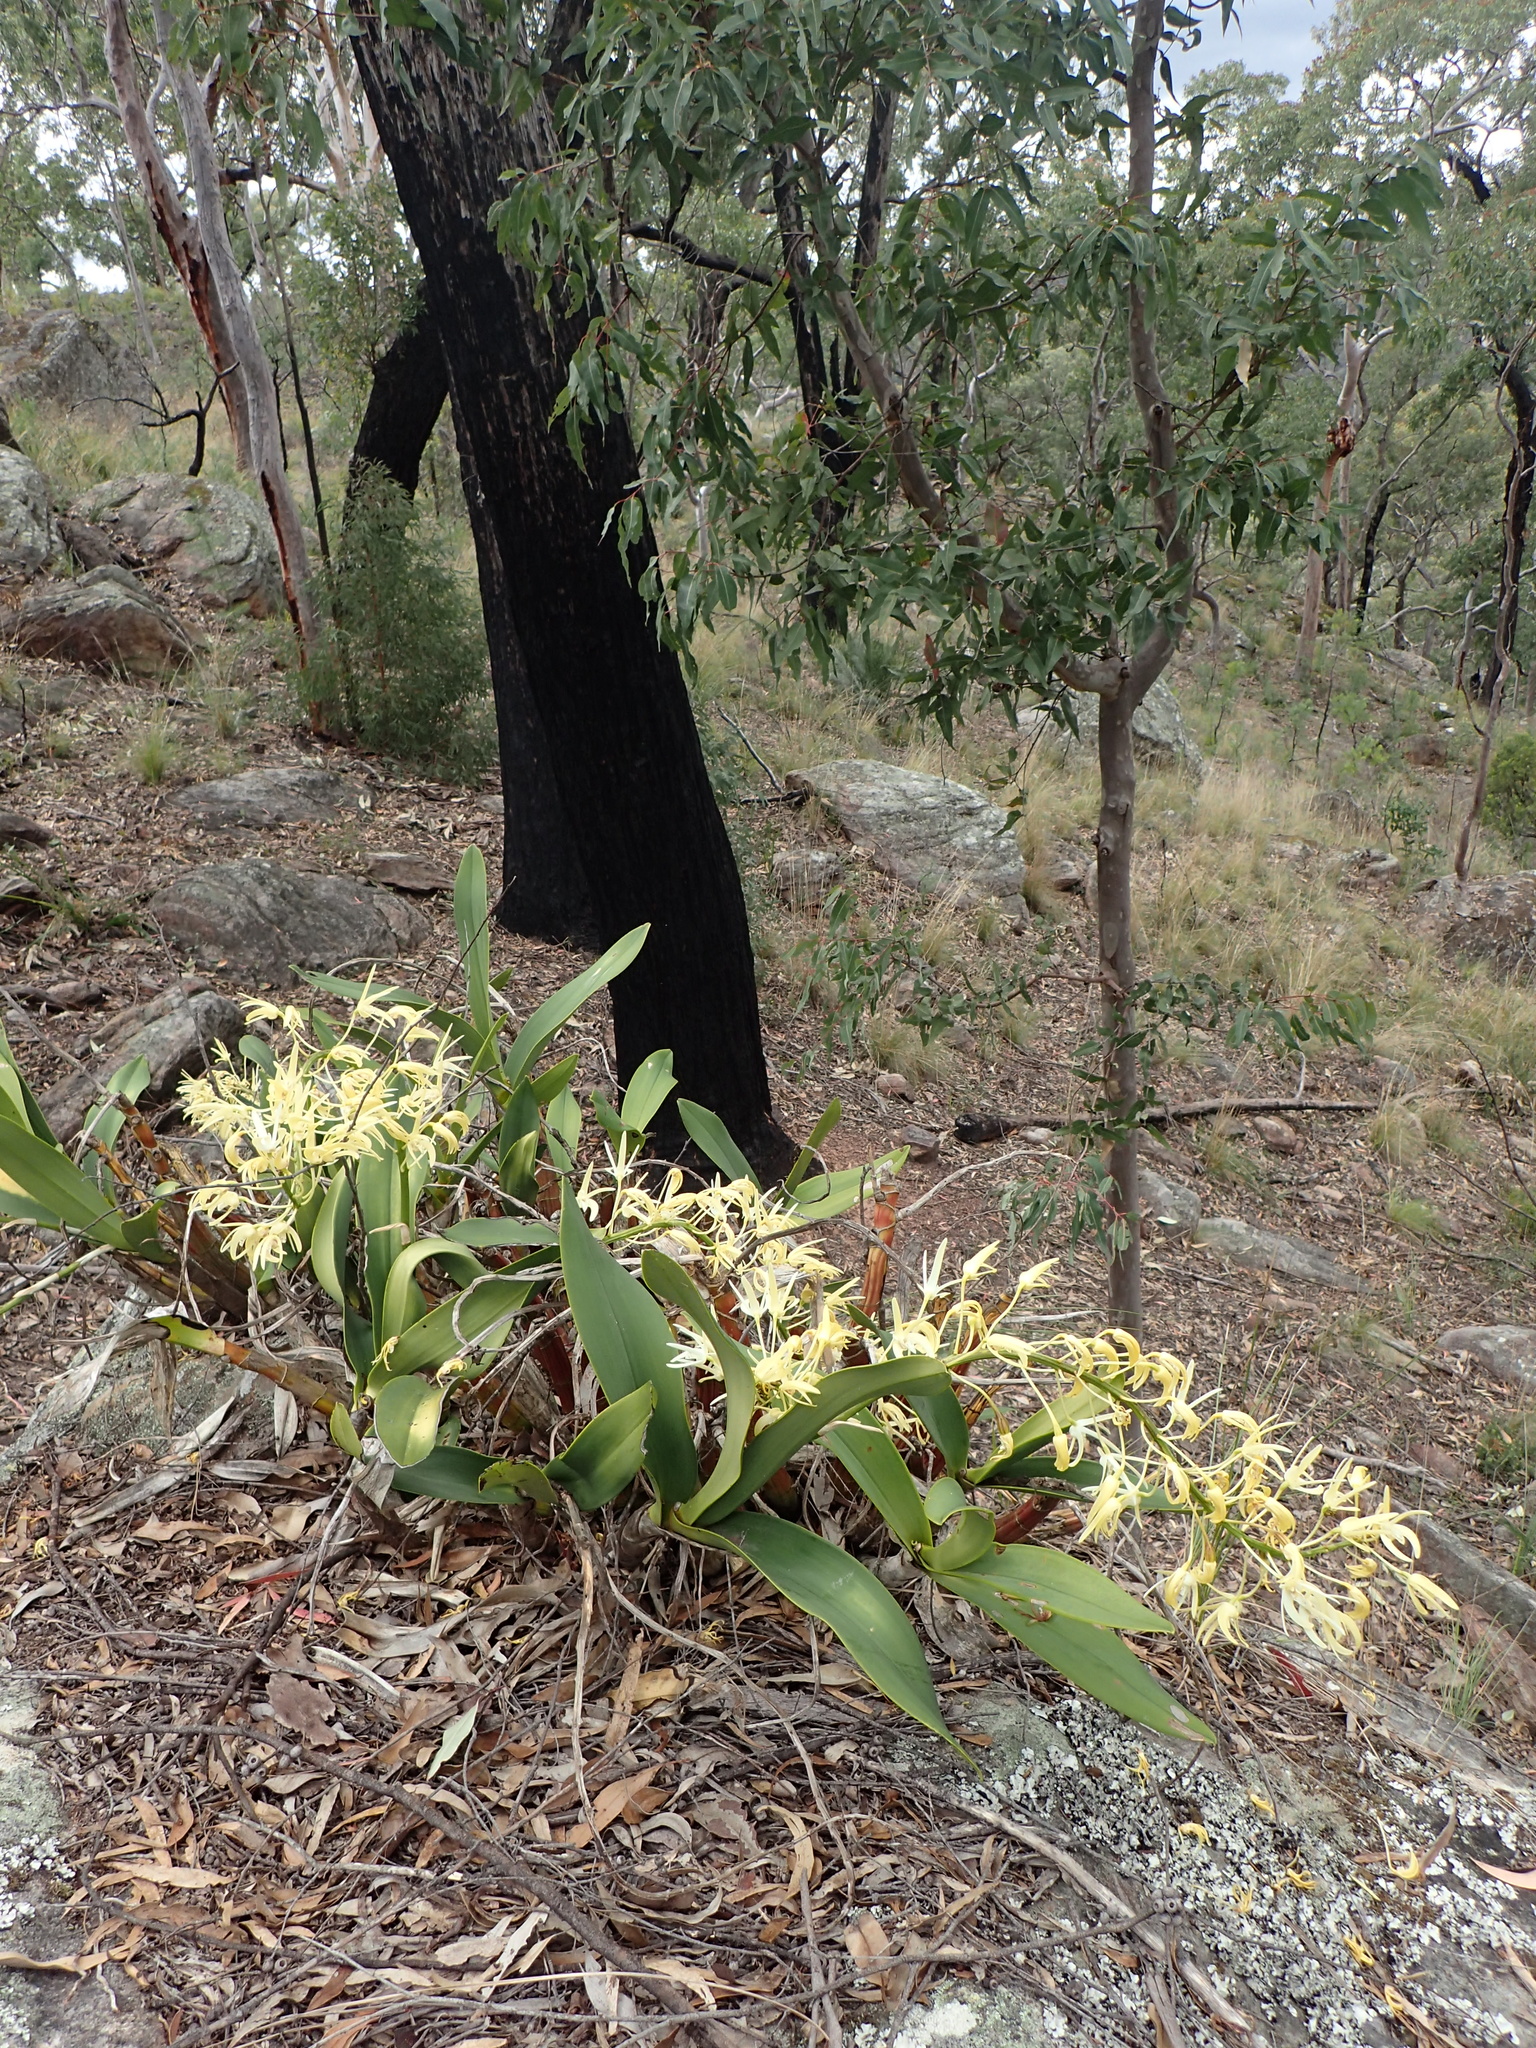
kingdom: Plantae
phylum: Tracheophyta
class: Liliopsida
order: Asparagales
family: Orchidaceae
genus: Dendrobium
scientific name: Dendrobium speciosum
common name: Rock-lily
